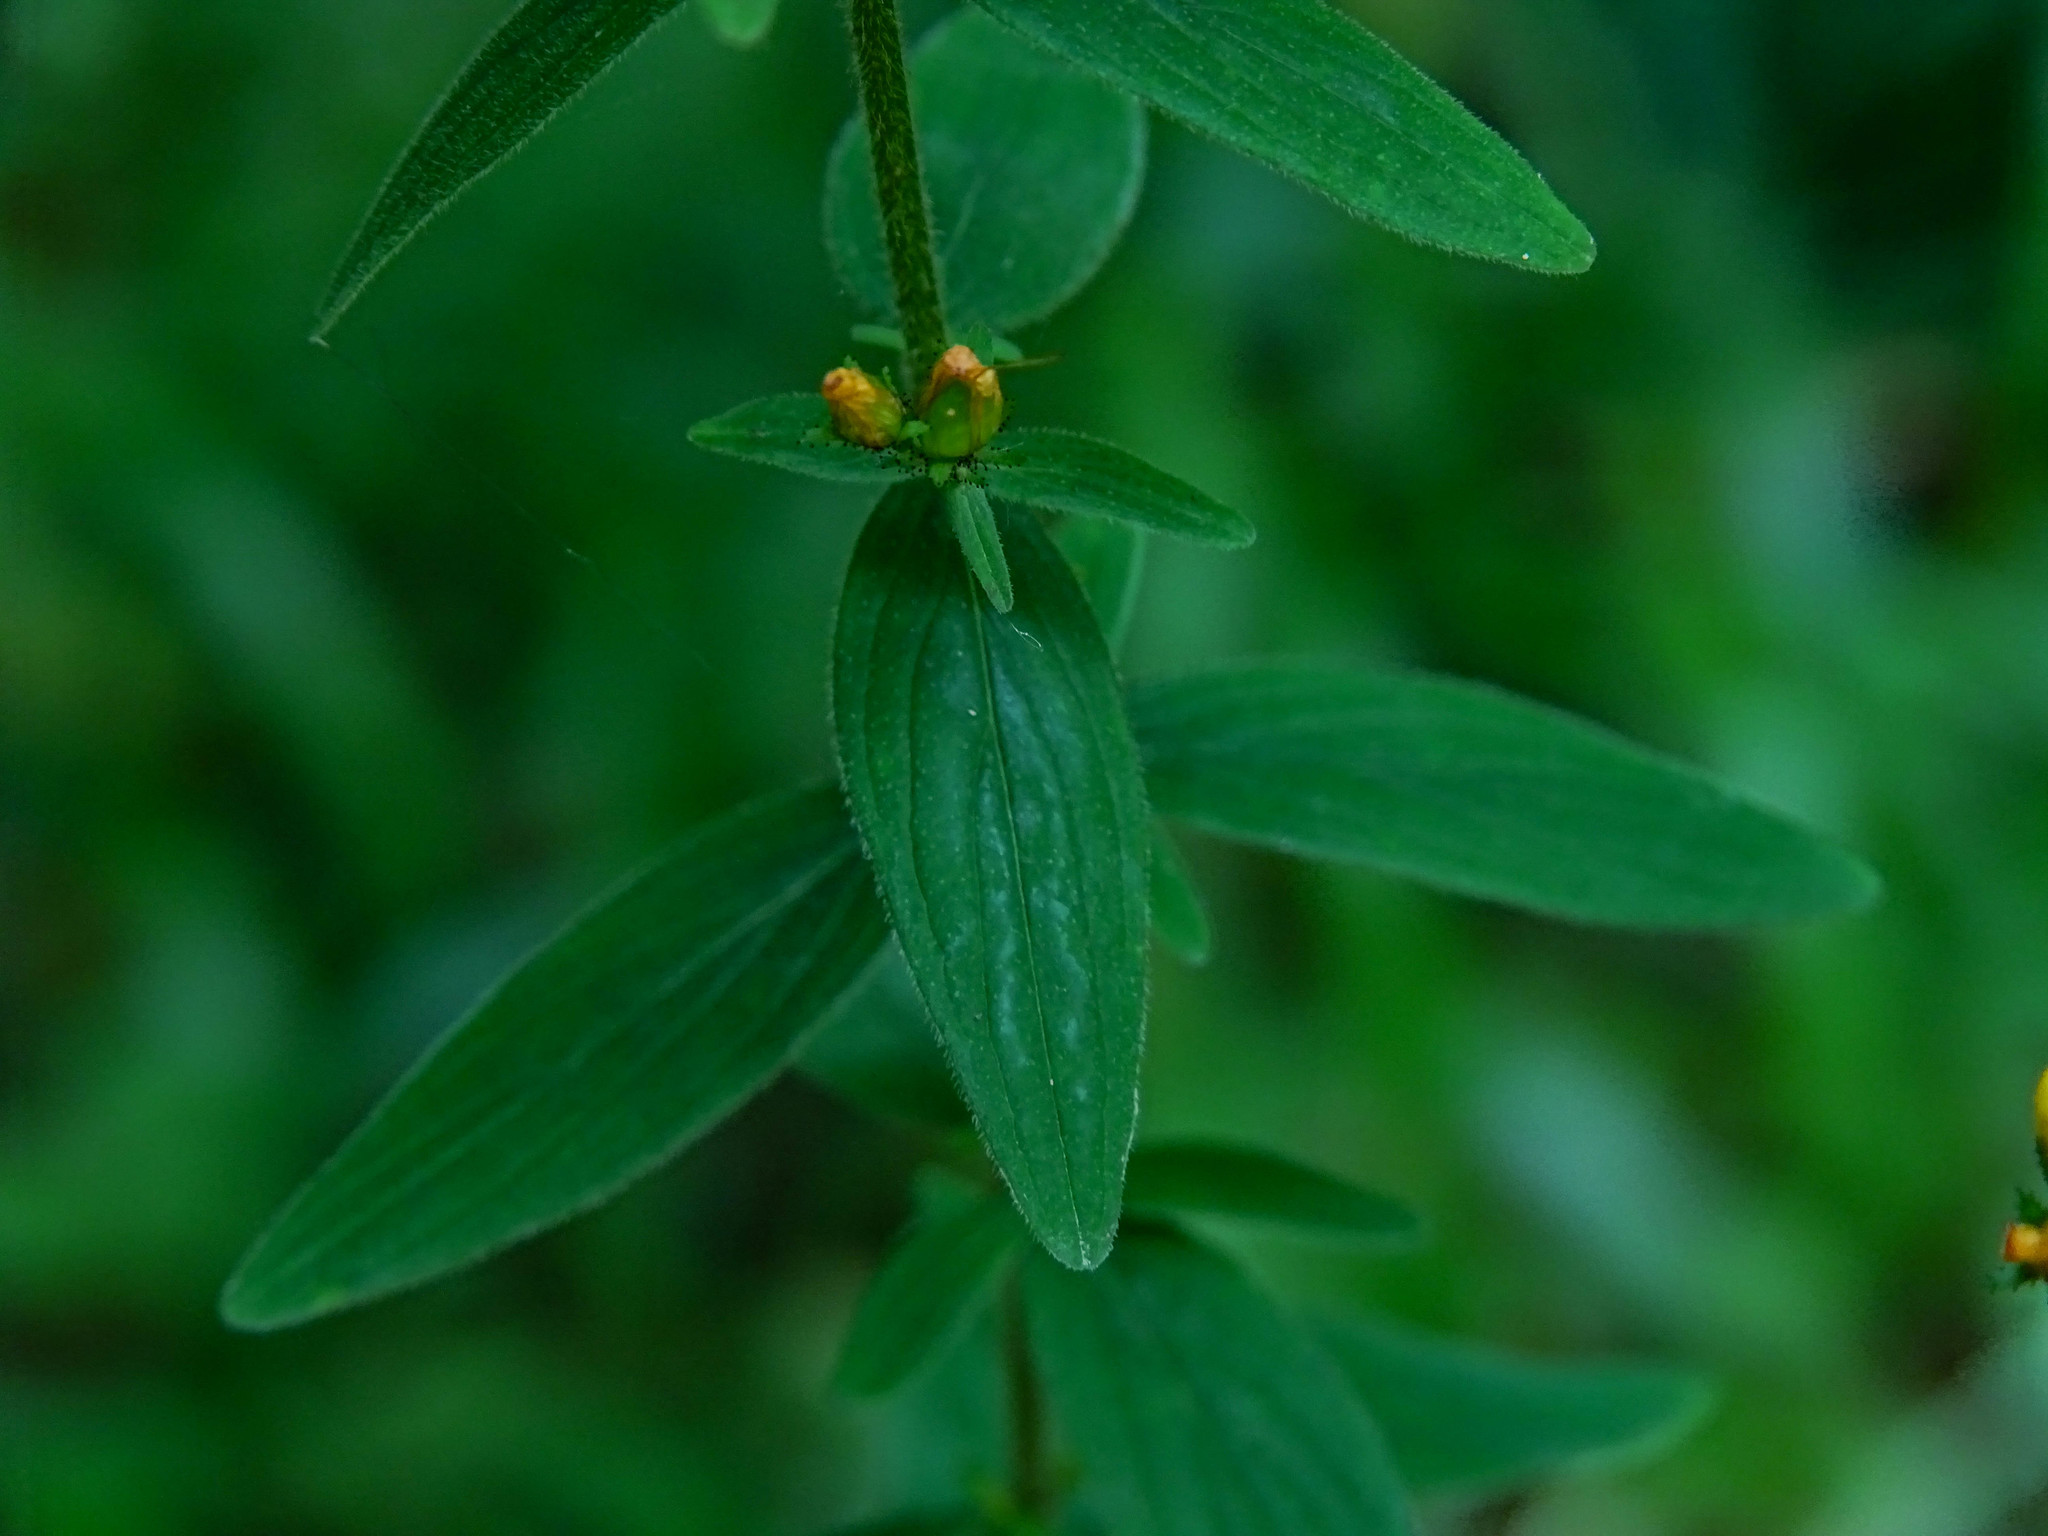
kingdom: Plantae
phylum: Tracheophyta
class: Magnoliopsida
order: Malpighiales
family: Hypericaceae
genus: Hypericum
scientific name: Hypericum hirsutum
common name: Hairy st. john's-wort
